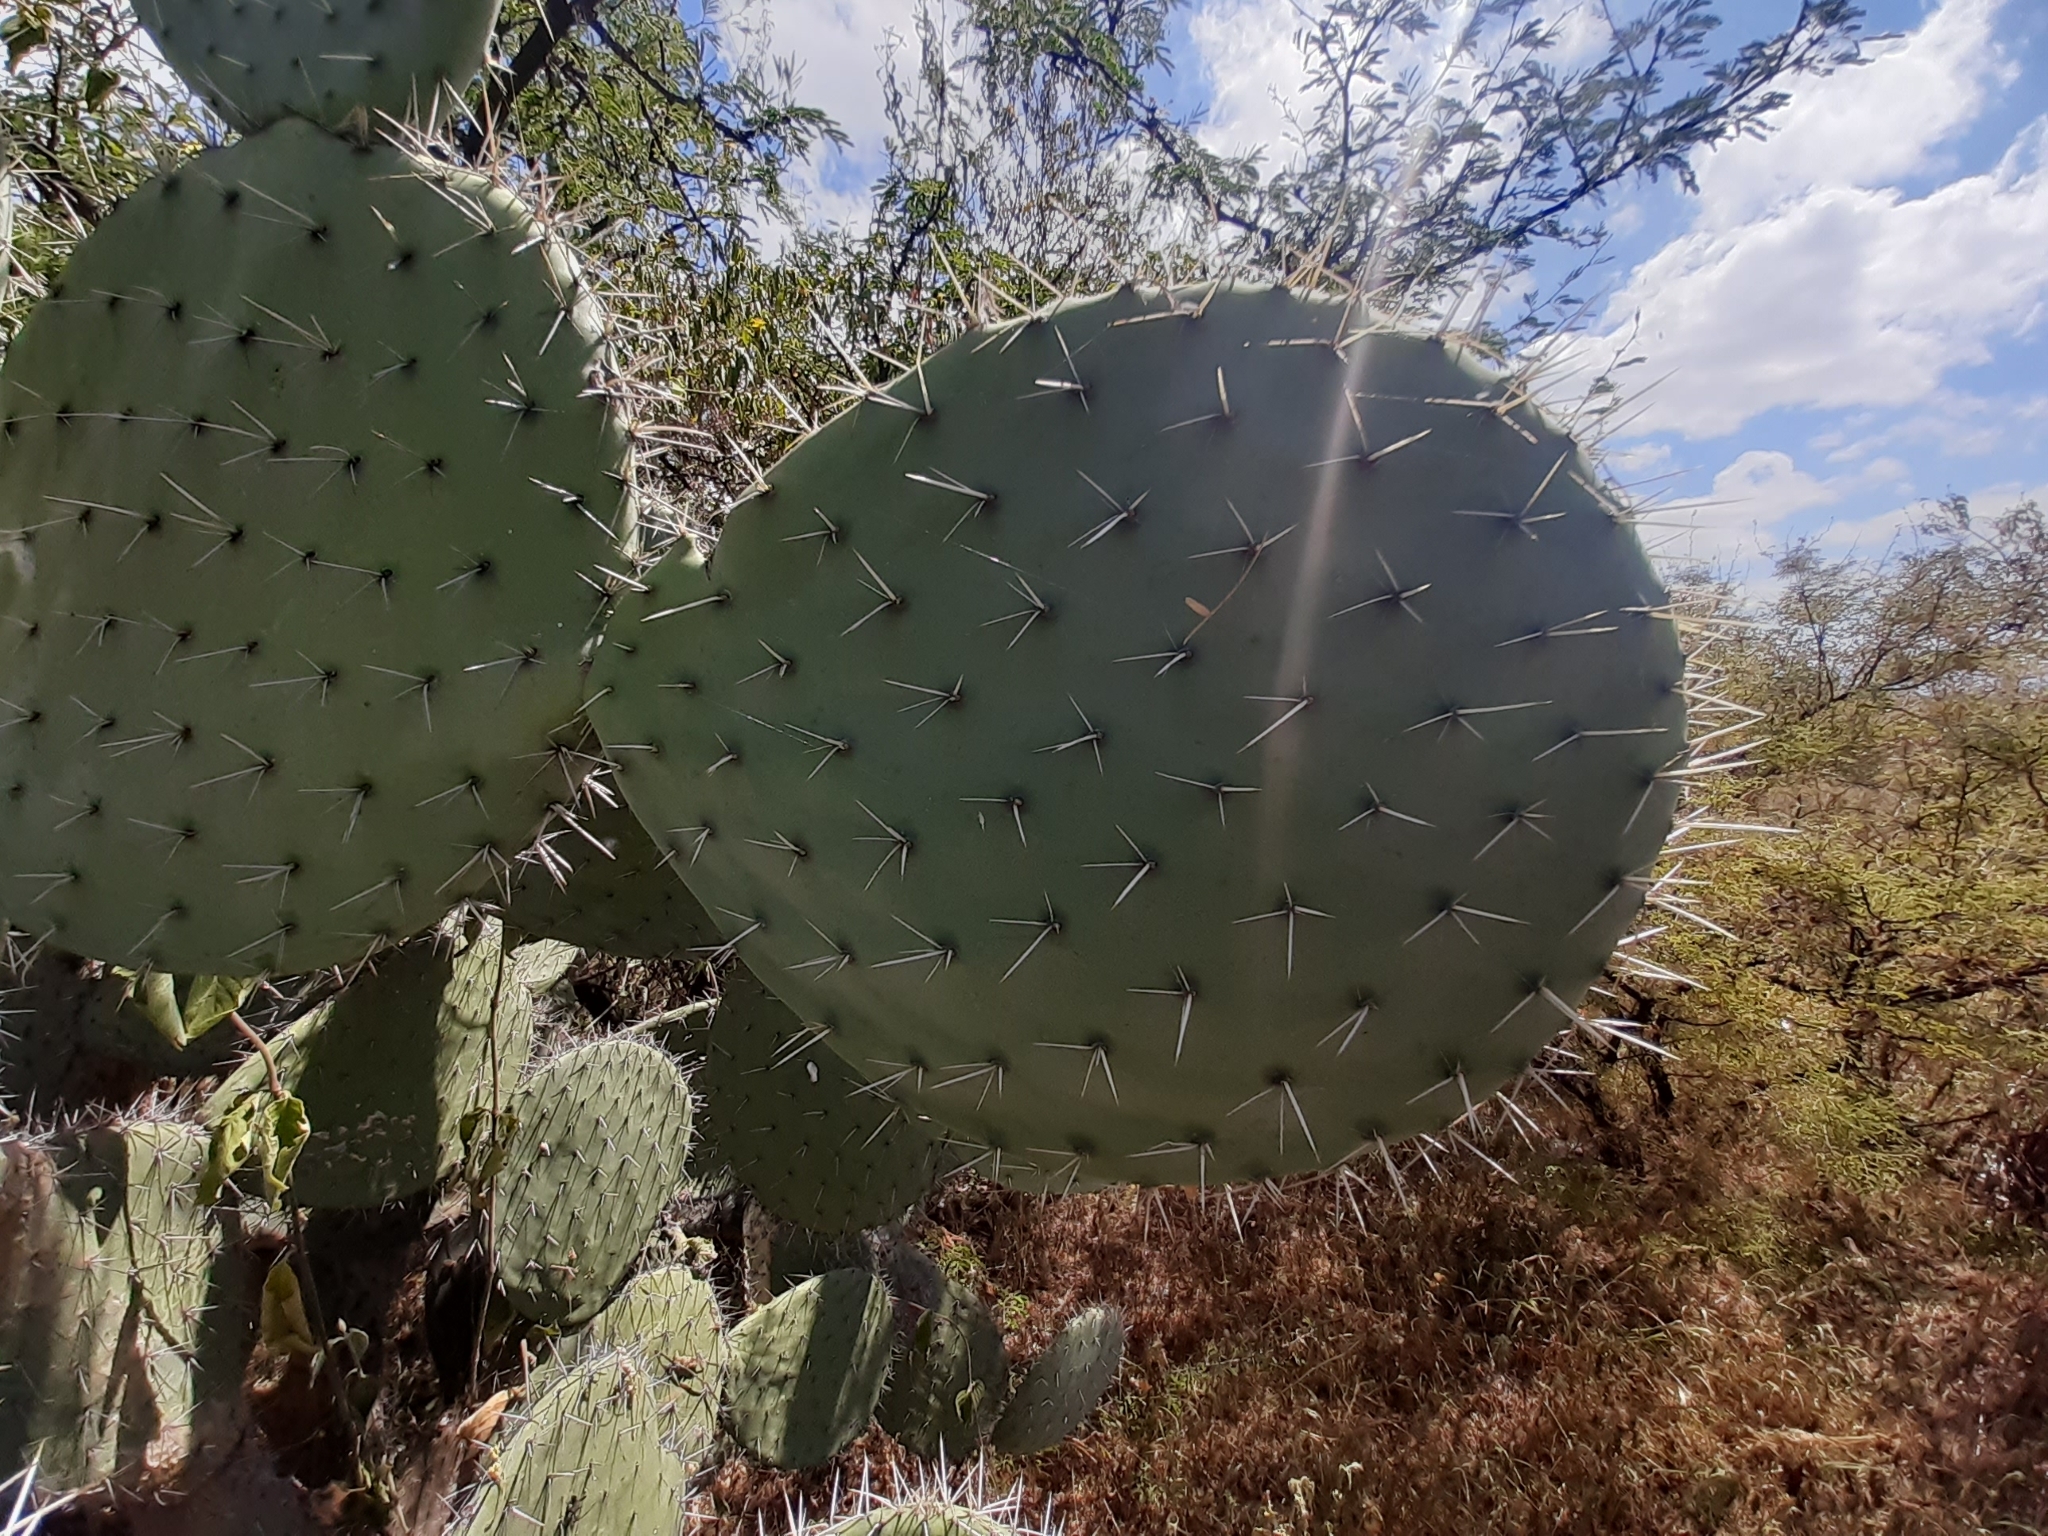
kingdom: Plantae
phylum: Tracheophyta
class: Magnoliopsida
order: Caryophyllales
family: Cactaceae
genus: Opuntia
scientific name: Opuntia streptacantha
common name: Gracemere-pear
